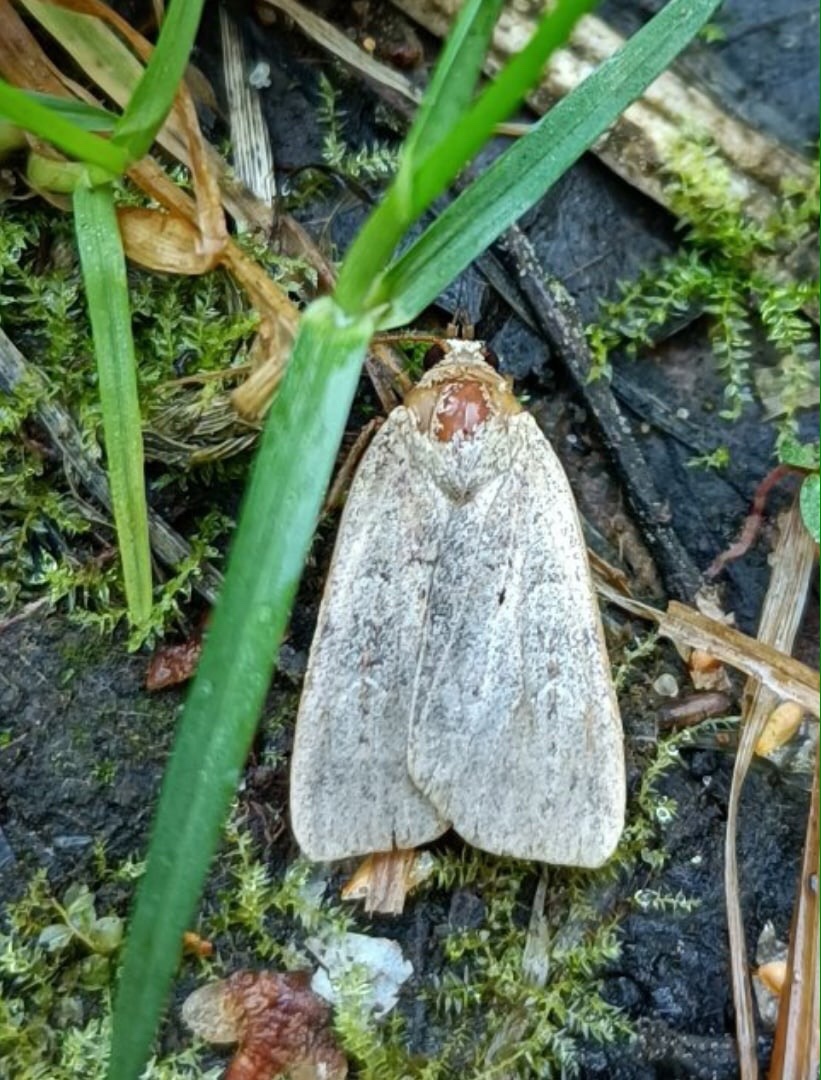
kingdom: Animalia
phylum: Arthropoda
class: Insecta
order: Lepidoptera
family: Noctuidae
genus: Diarsia
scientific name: Diarsia dahlii
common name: Barred chestnut
